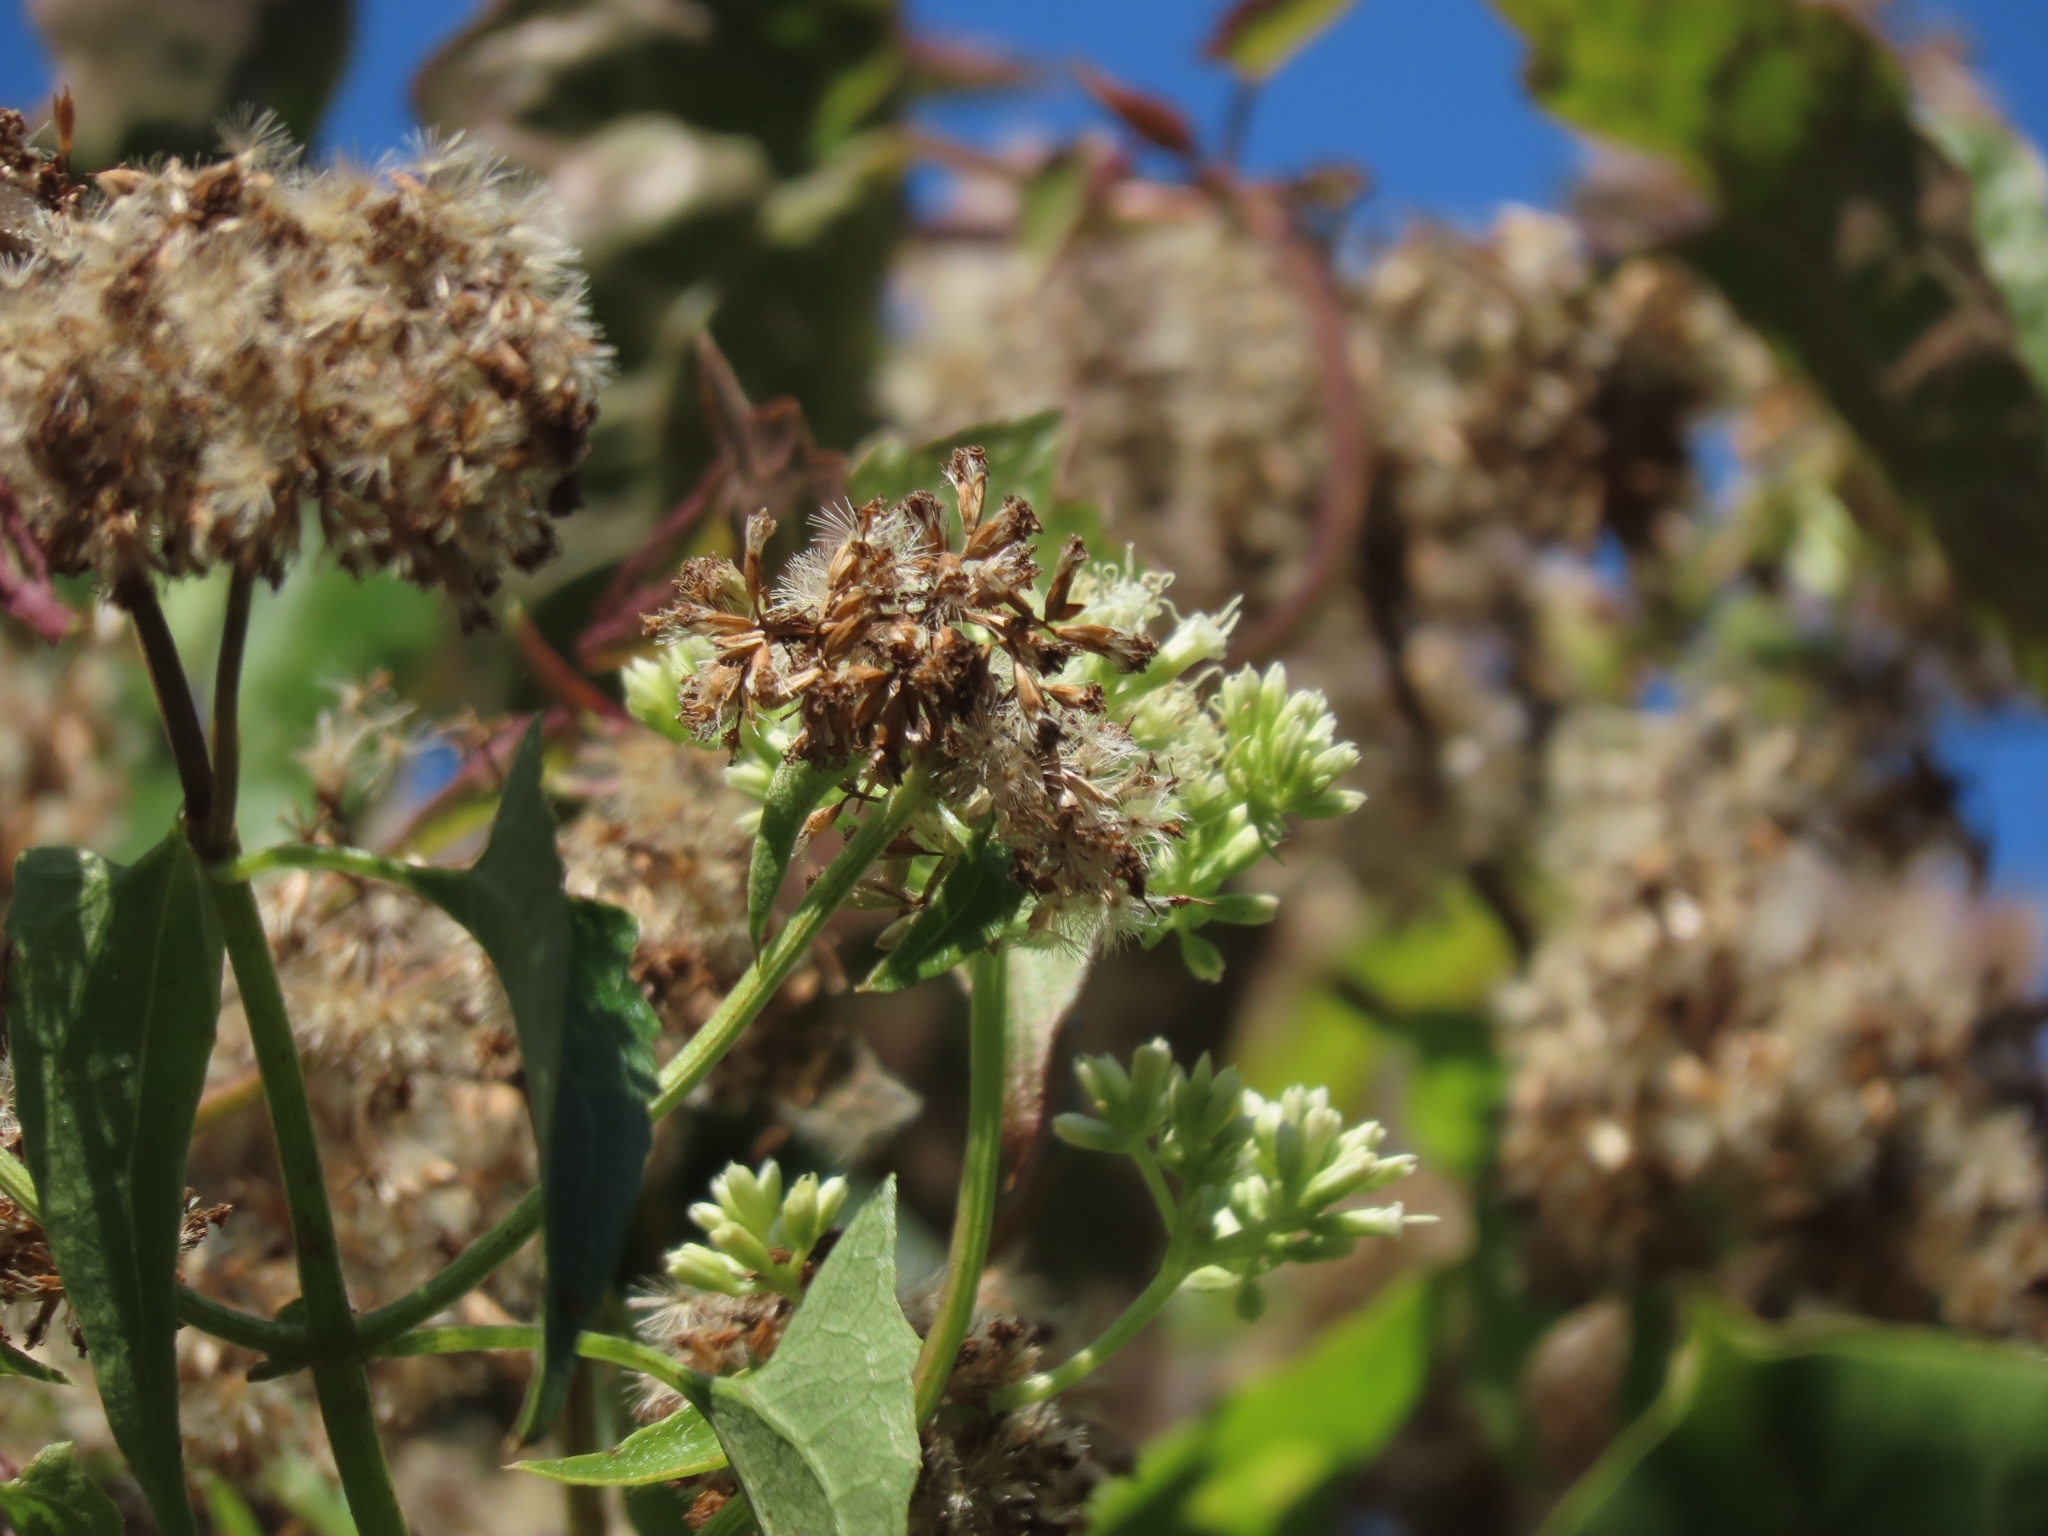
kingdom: Plantae
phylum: Tracheophyta
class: Magnoliopsida
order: Asterales
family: Asteraceae
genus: Mikania
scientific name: Mikania micrantha
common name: Mile-a-minute
